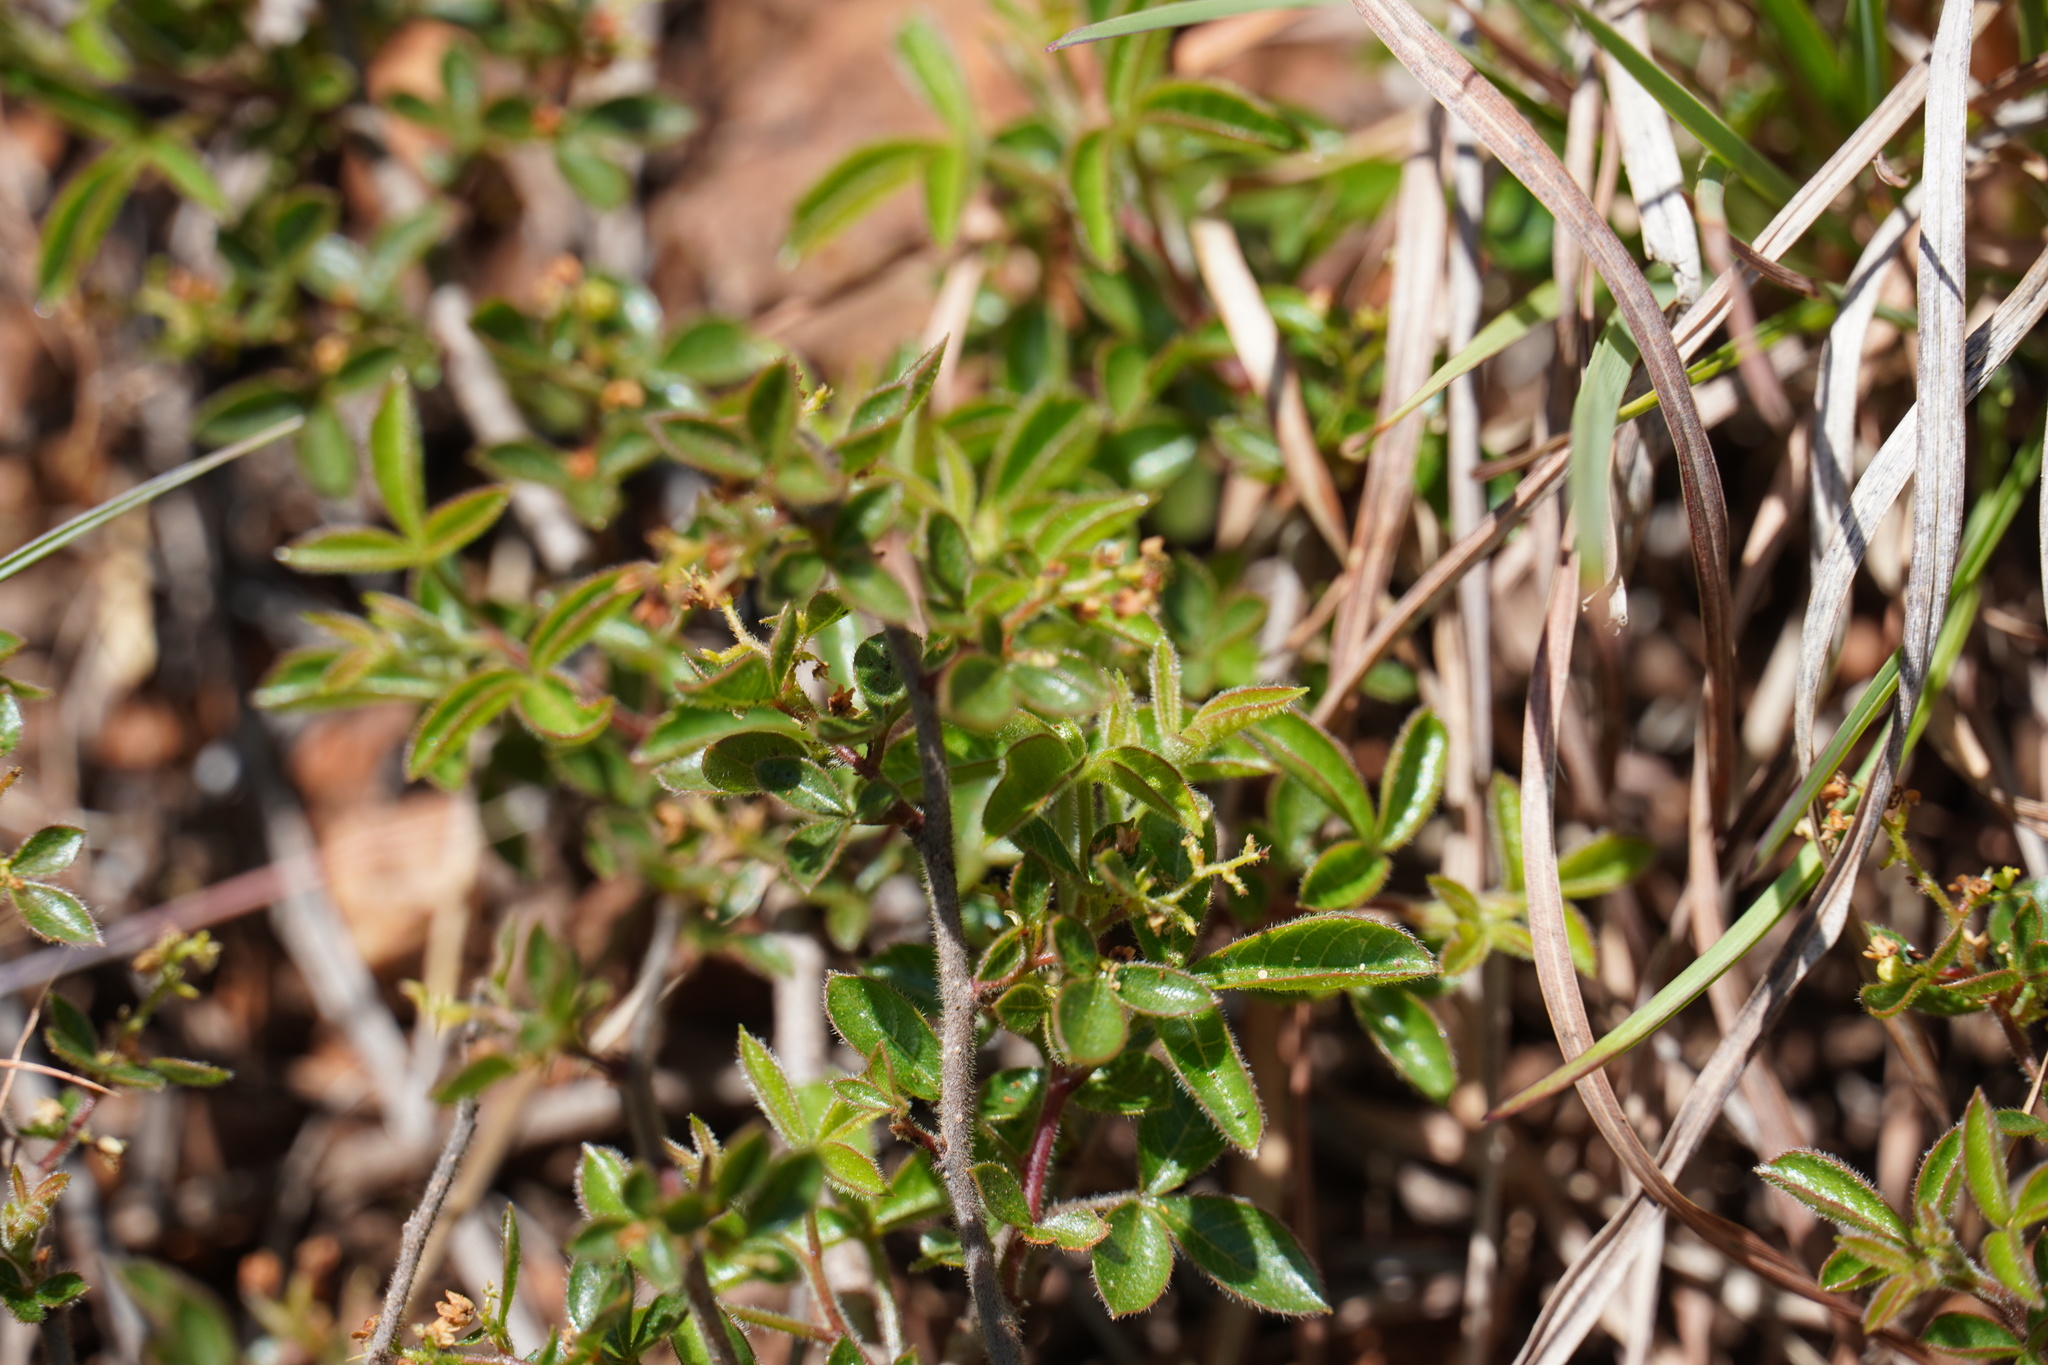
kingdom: Plantae
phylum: Tracheophyta
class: Magnoliopsida
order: Sapindales
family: Anacardiaceae
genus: Searsia
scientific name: Searsia rigida
